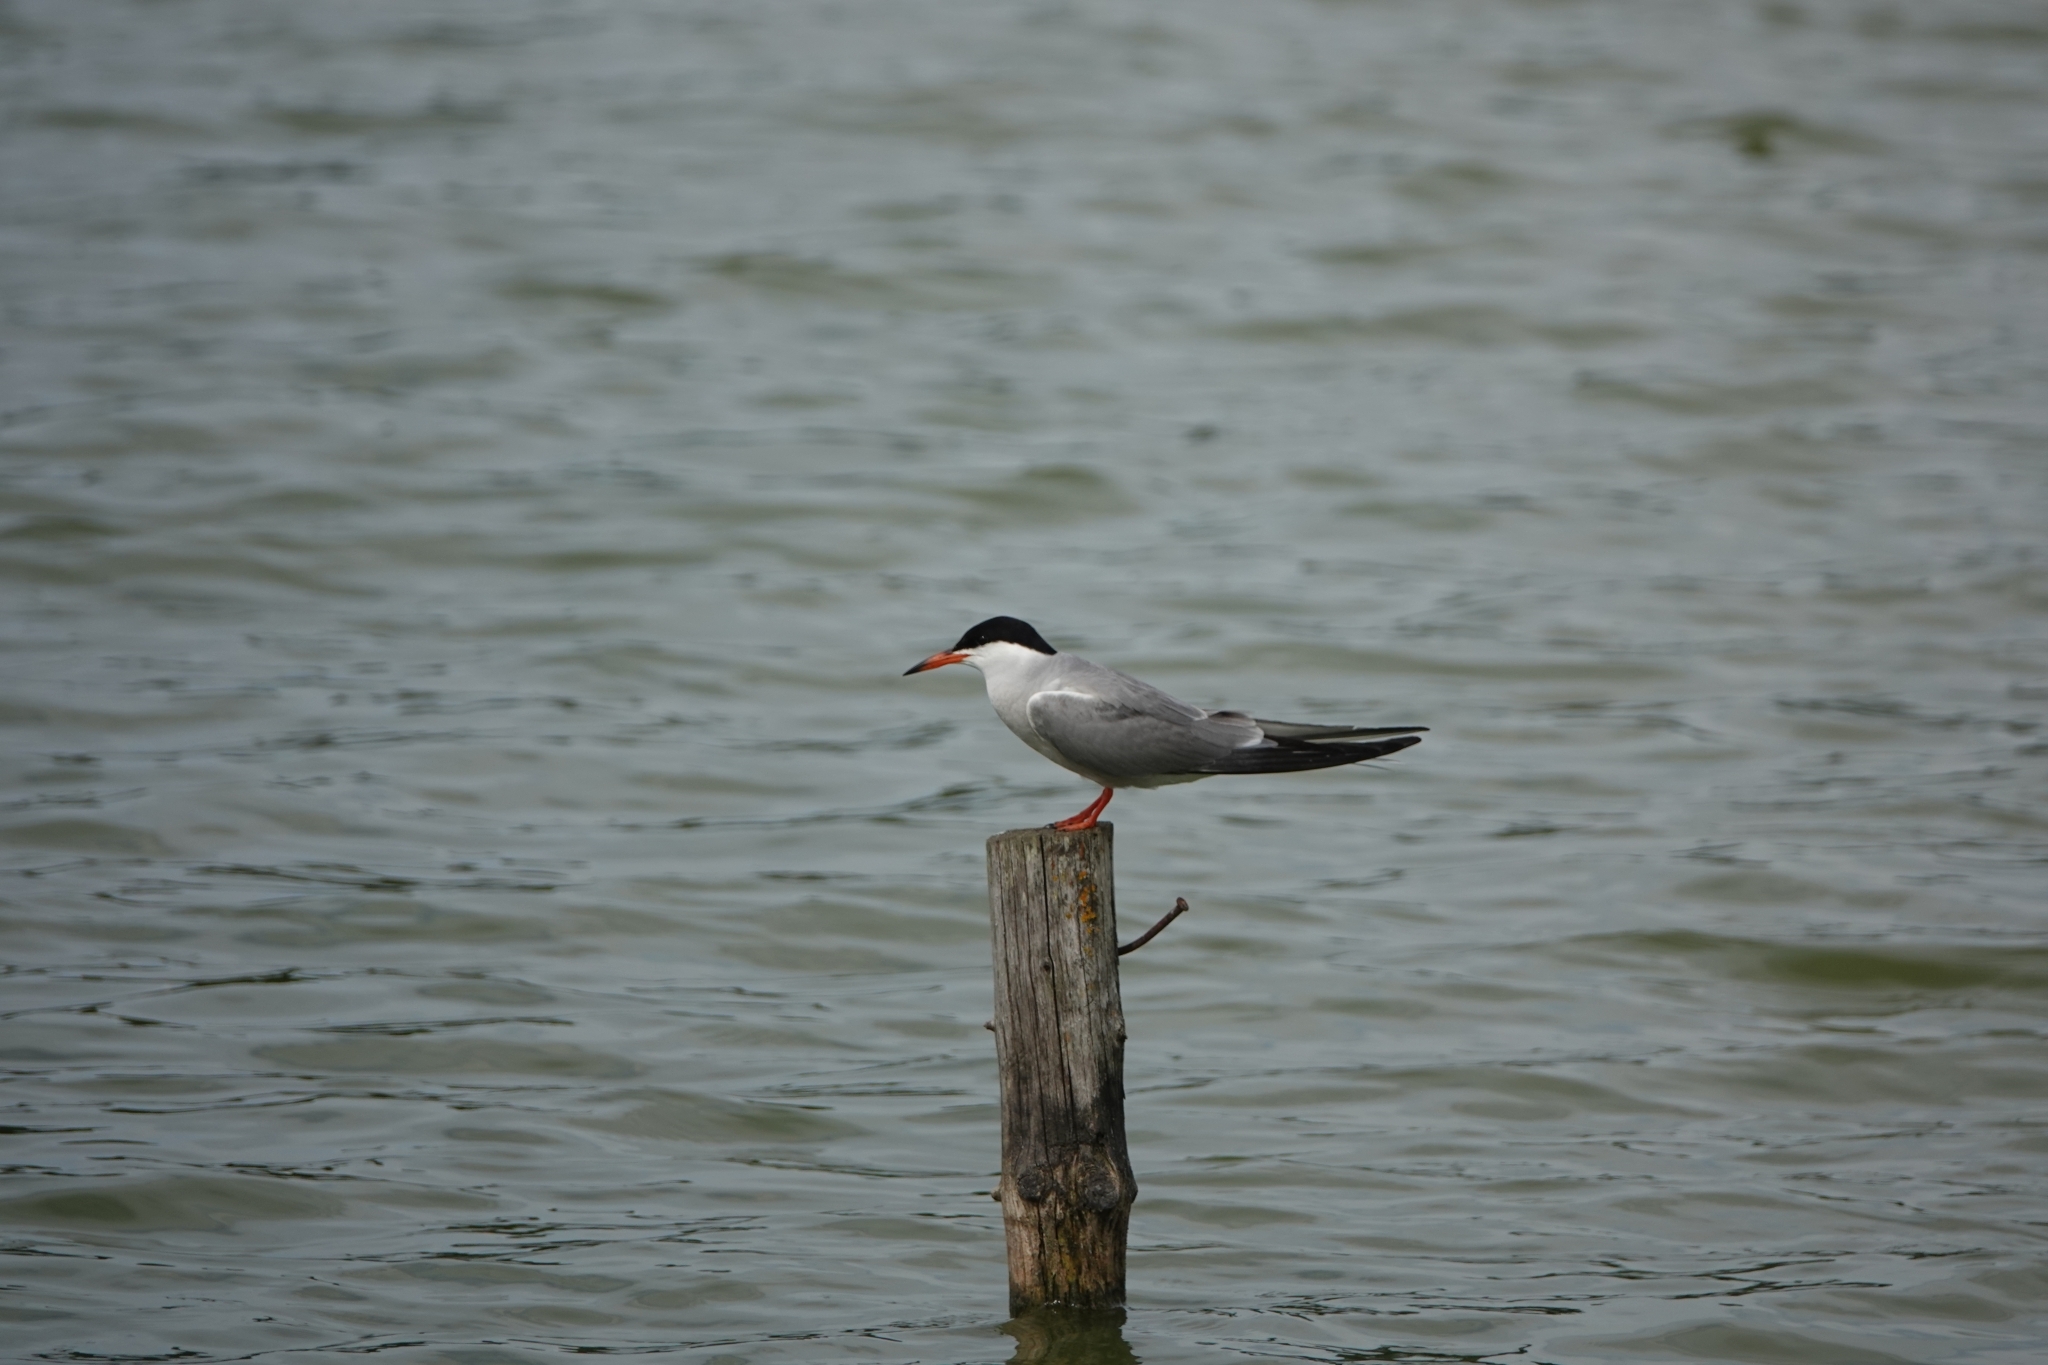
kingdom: Animalia
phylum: Chordata
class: Aves
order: Charadriiformes
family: Laridae
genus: Sterna
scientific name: Sterna hirundo
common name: Common tern
